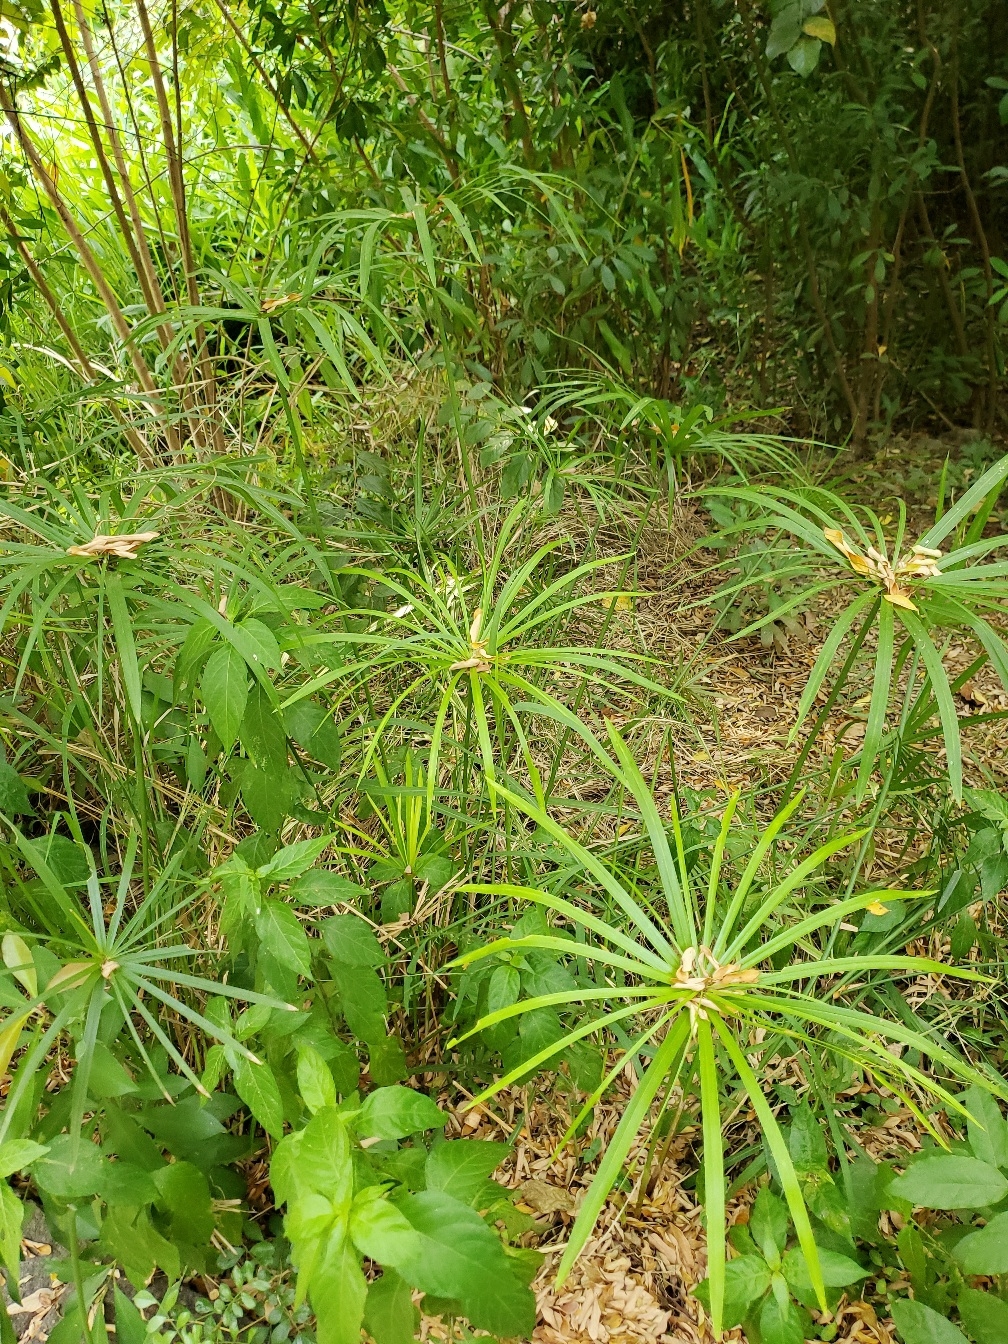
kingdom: Plantae
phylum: Tracheophyta
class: Liliopsida
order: Poales
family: Cyperaceae
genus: Cyperus
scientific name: Cyperus alternifolius
